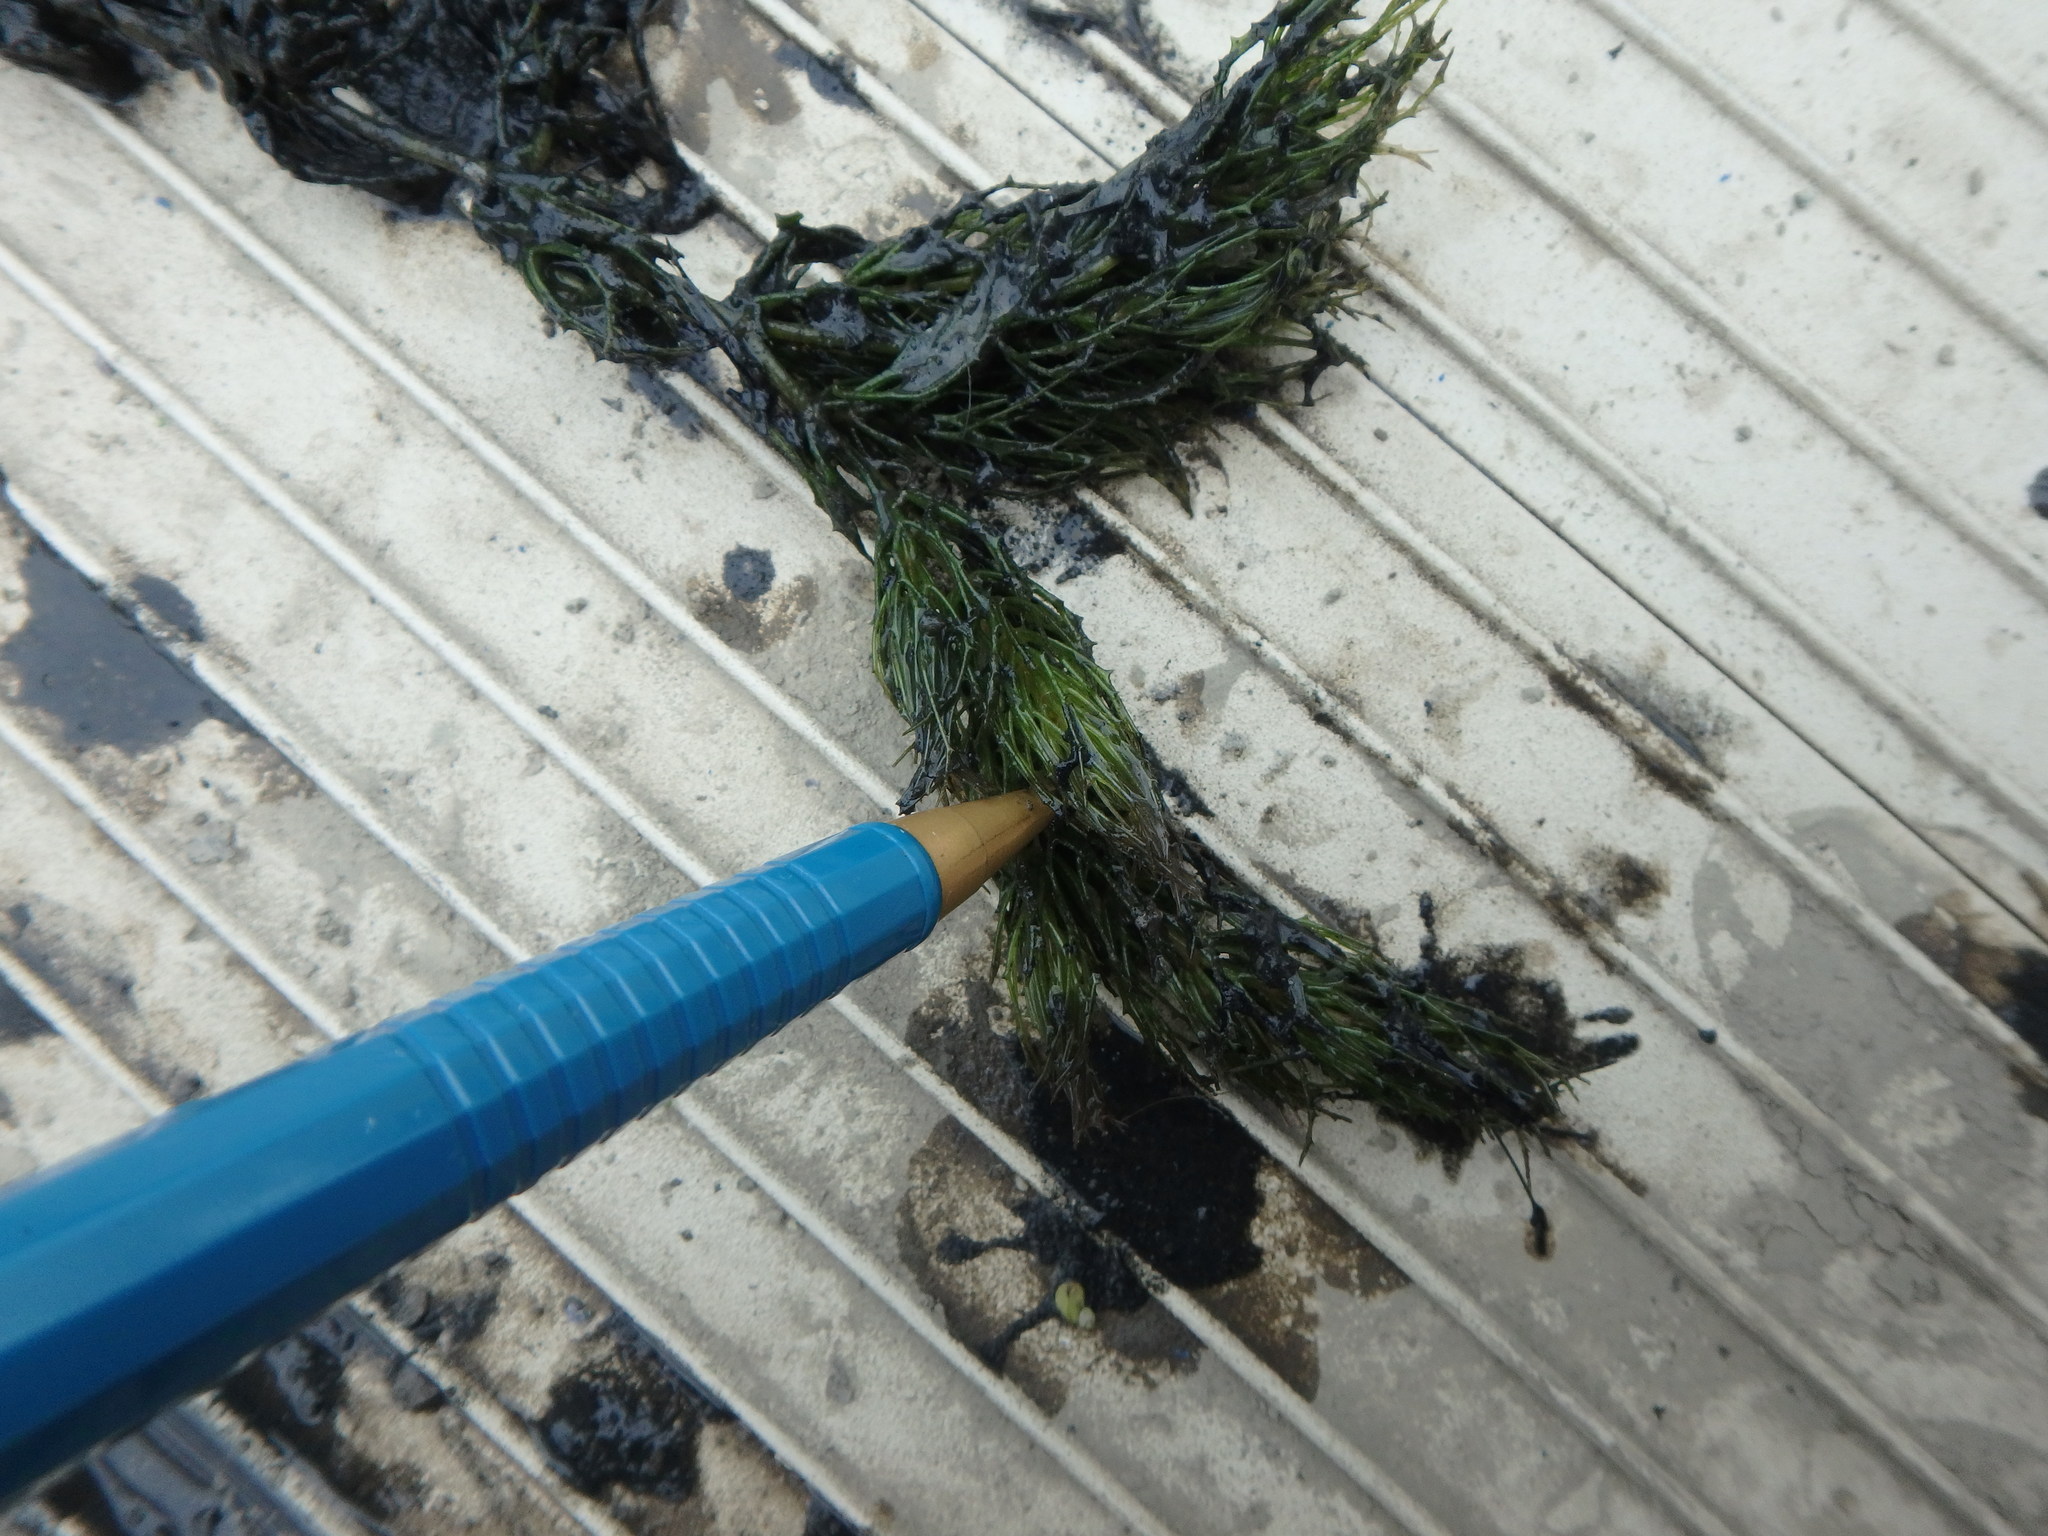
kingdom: Plantae
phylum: Tracheophyta
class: Magnoliopsida
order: Ceratophyllales
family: Ceratophyllaceae
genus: Ceratophyllum
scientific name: Ceratophyllum demersum
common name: Rigid hornwort
